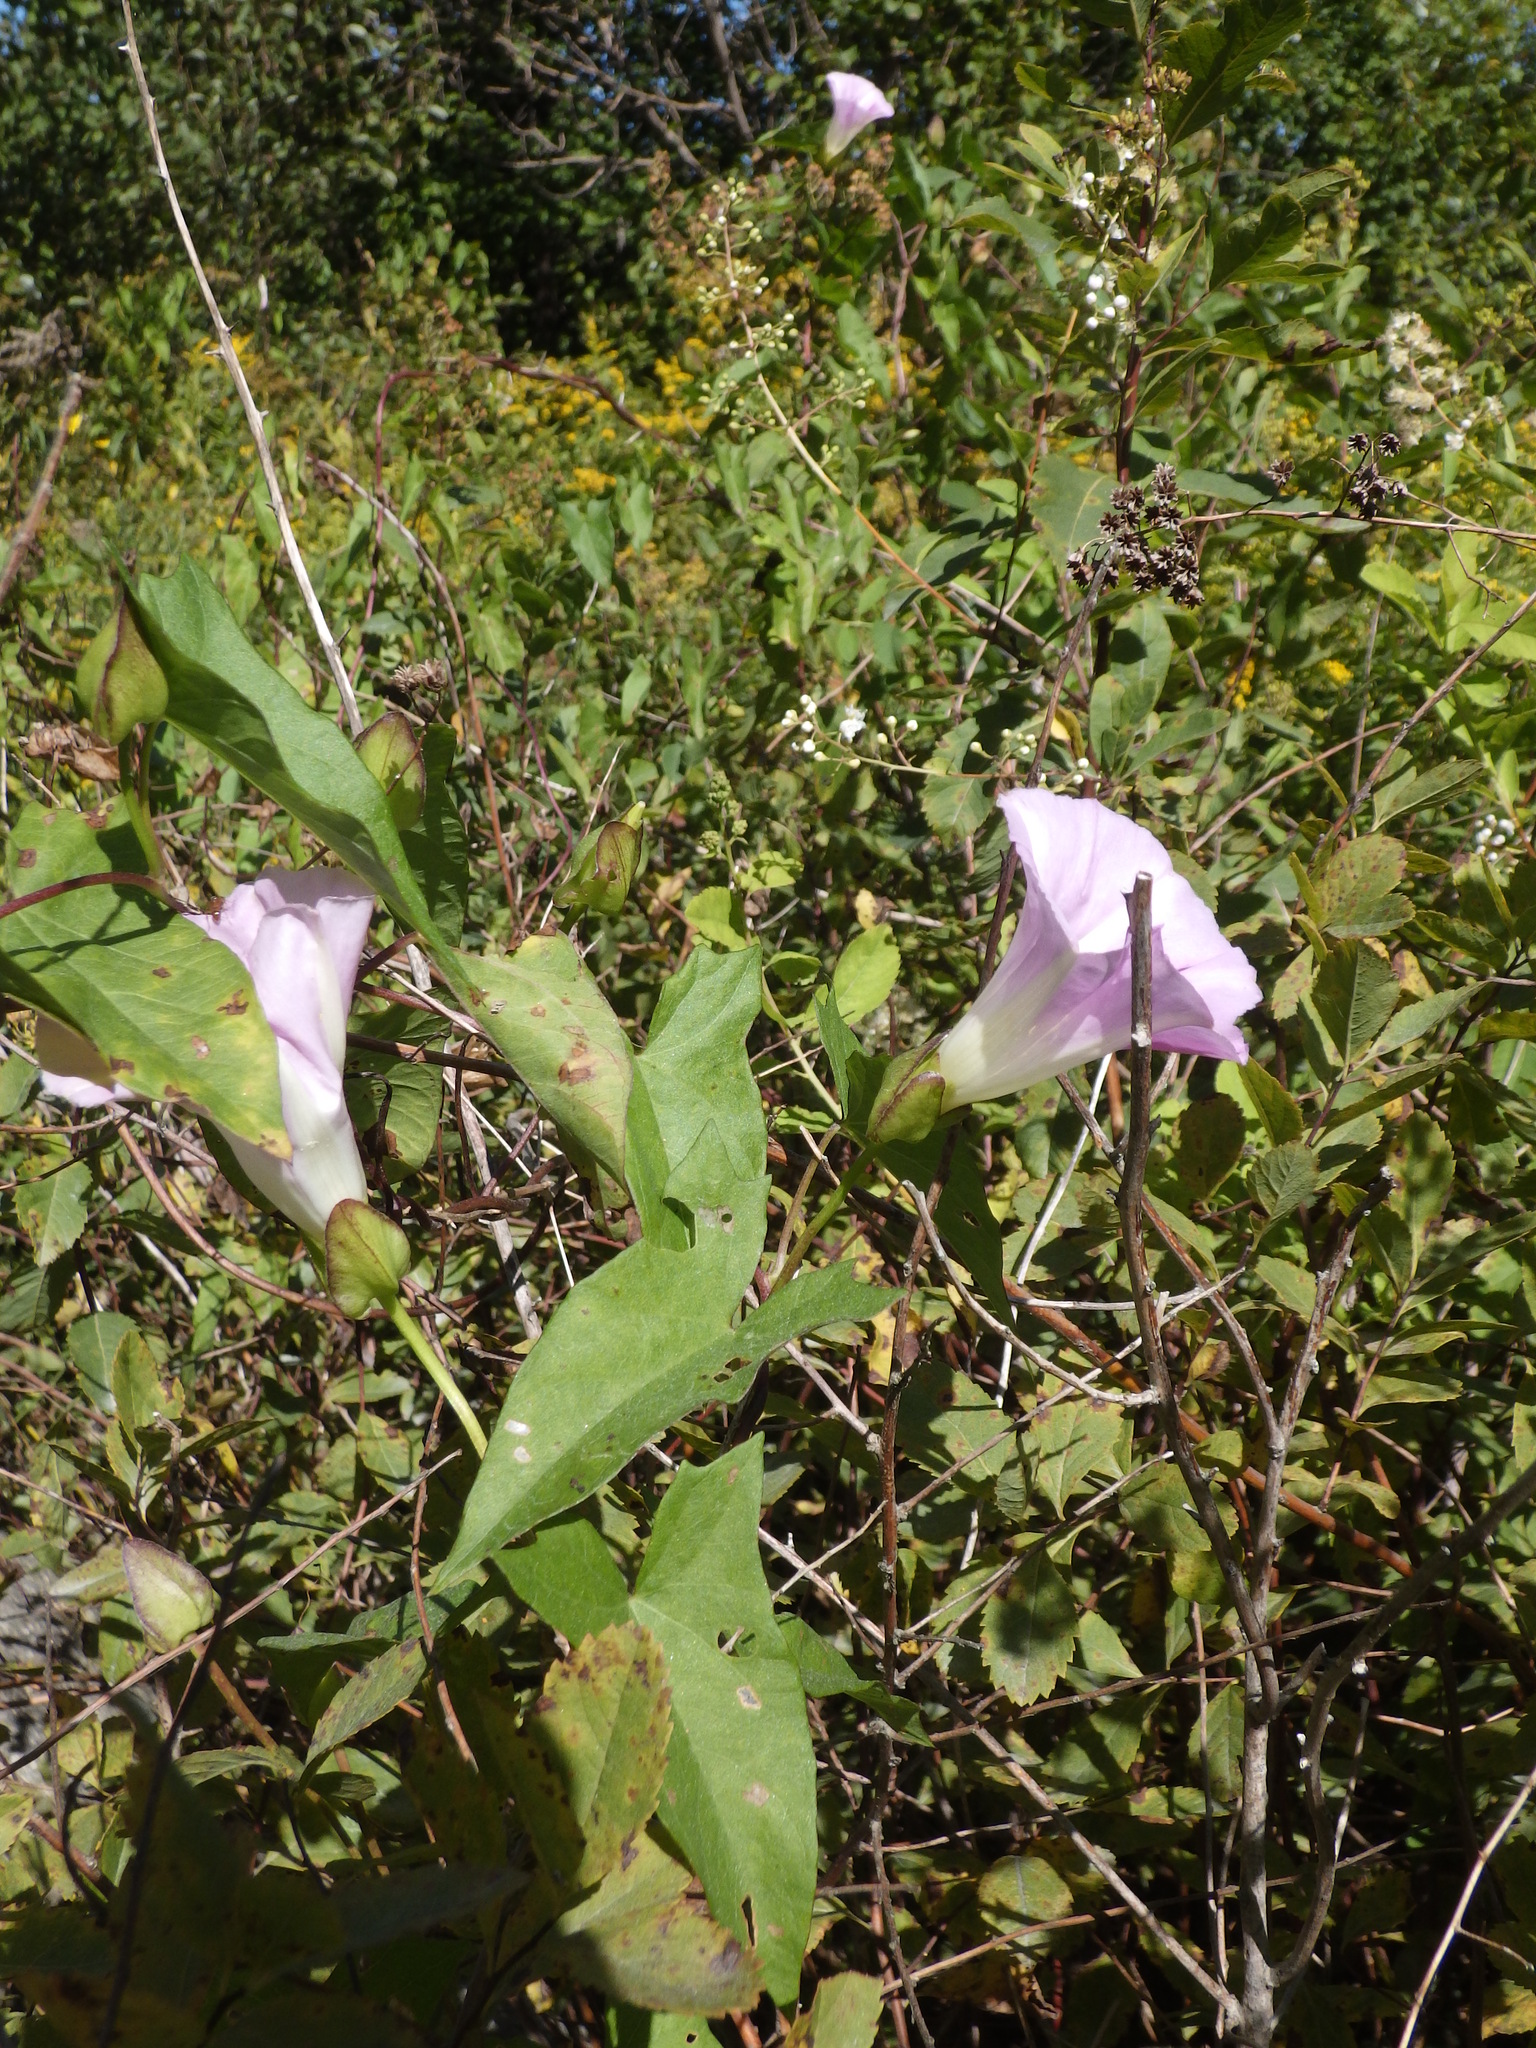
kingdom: Plantae
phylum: Tracheophyta
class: Magnoliopsida
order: Solanales
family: Convolvulaceae
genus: Calystegia
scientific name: Calystegia sepium
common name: Hedge bindweed
